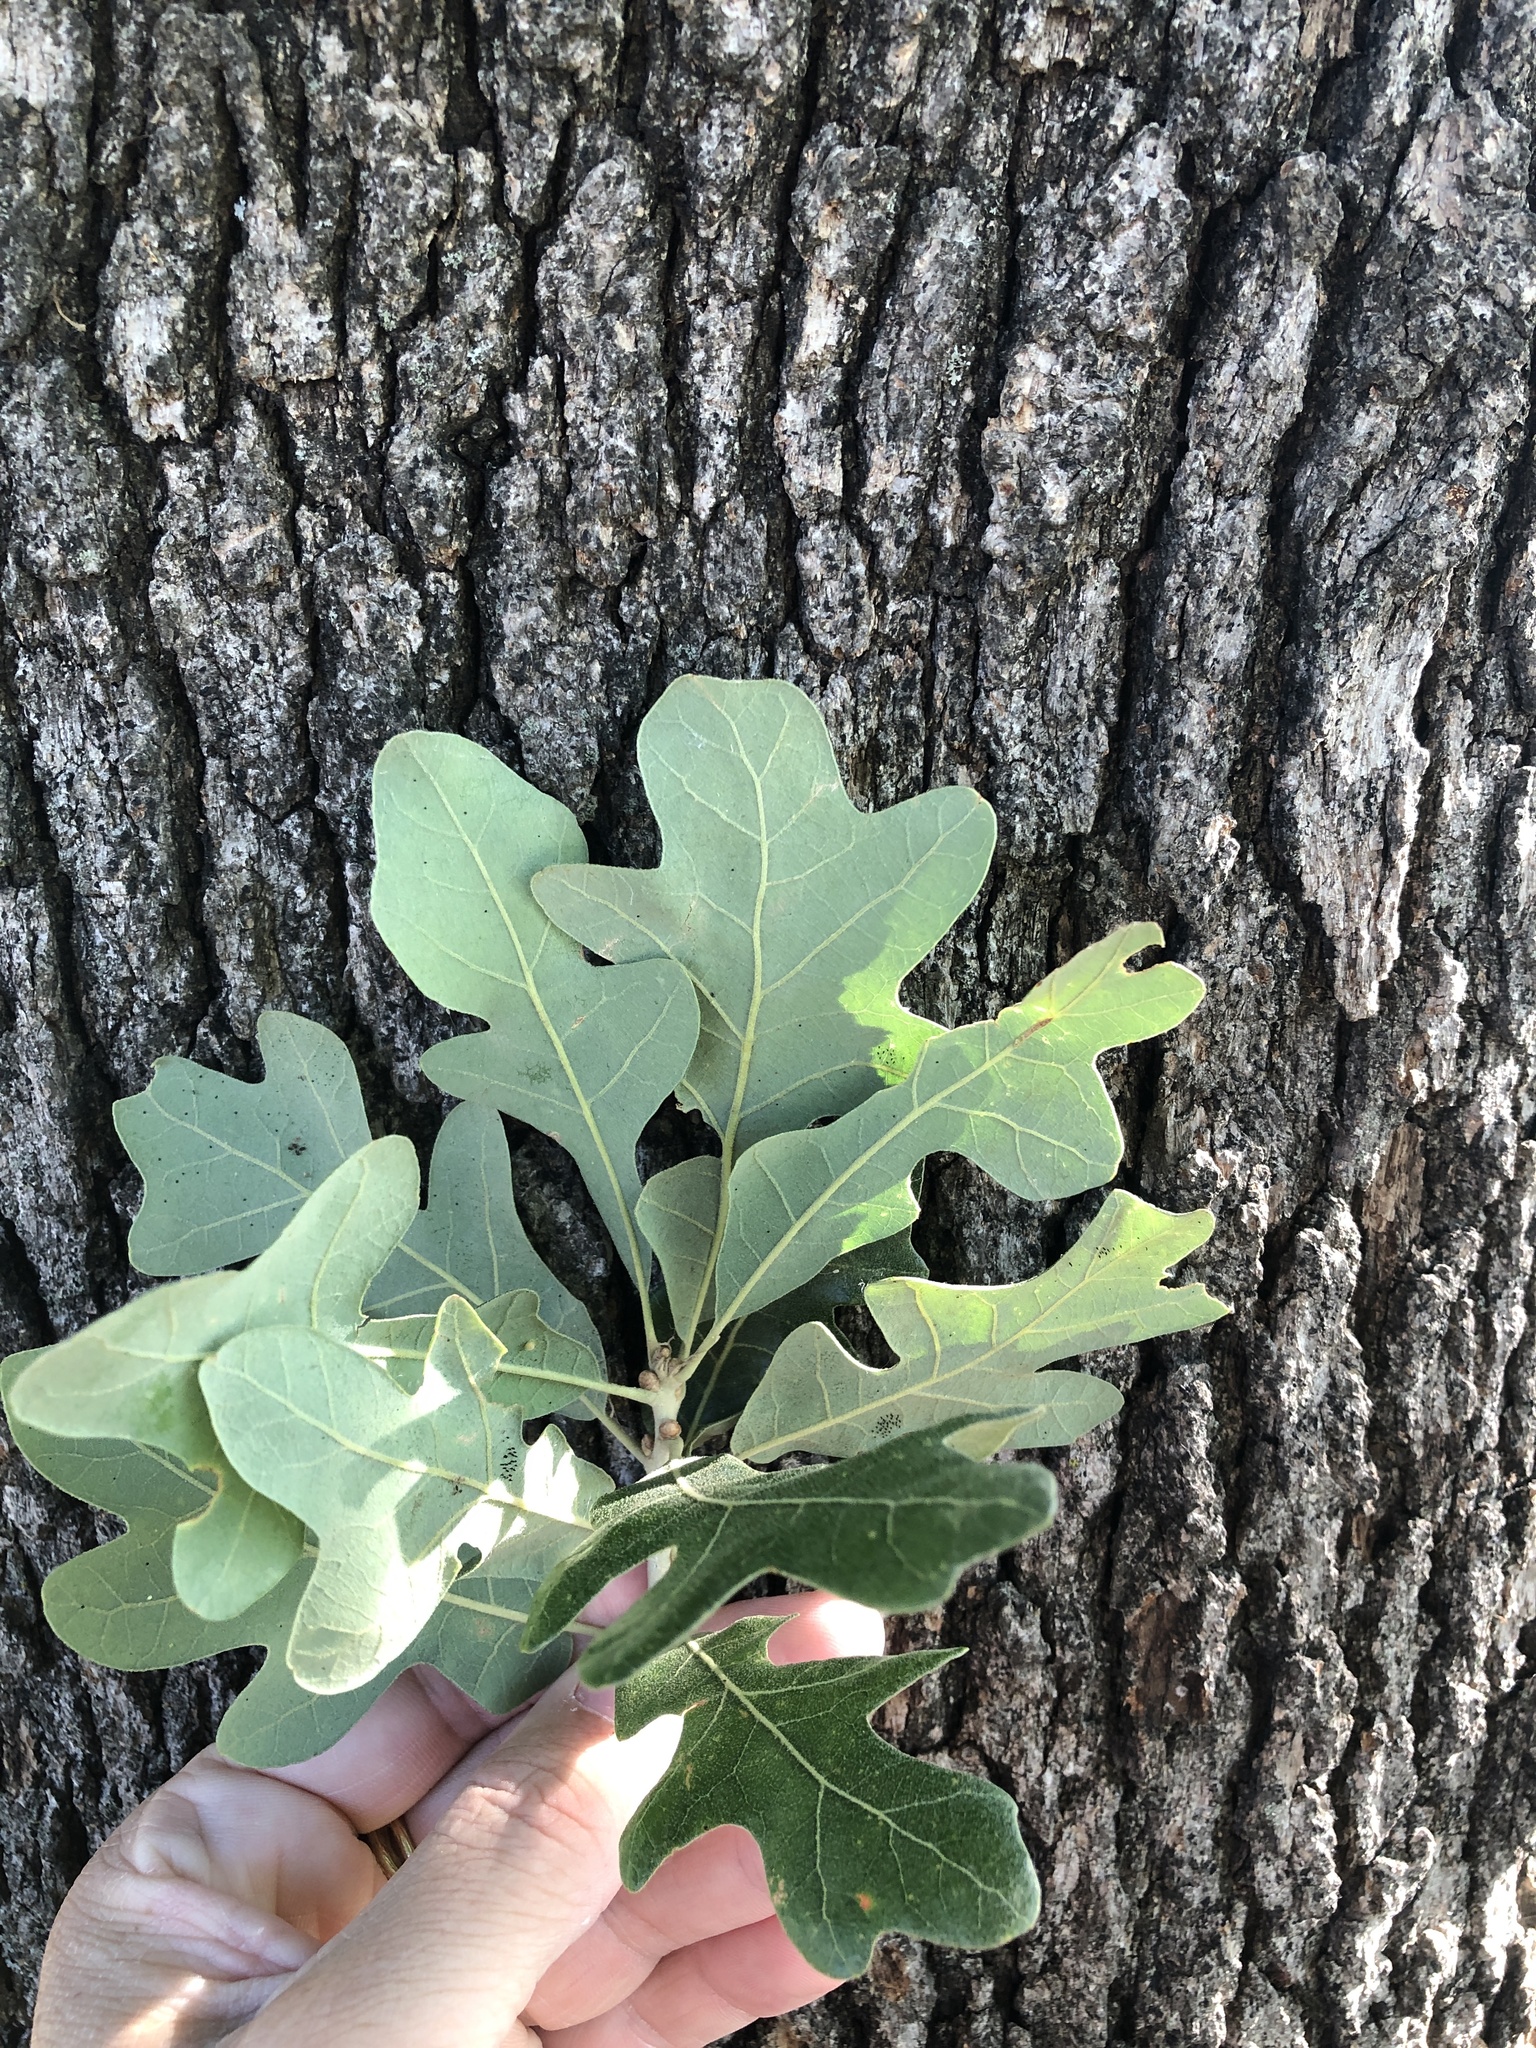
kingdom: Plantae
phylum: Tracheophyta
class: Magnoliopsida
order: Fagales
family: Fagaceae
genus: Quercus
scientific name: Quercus stellata
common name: Post oak
